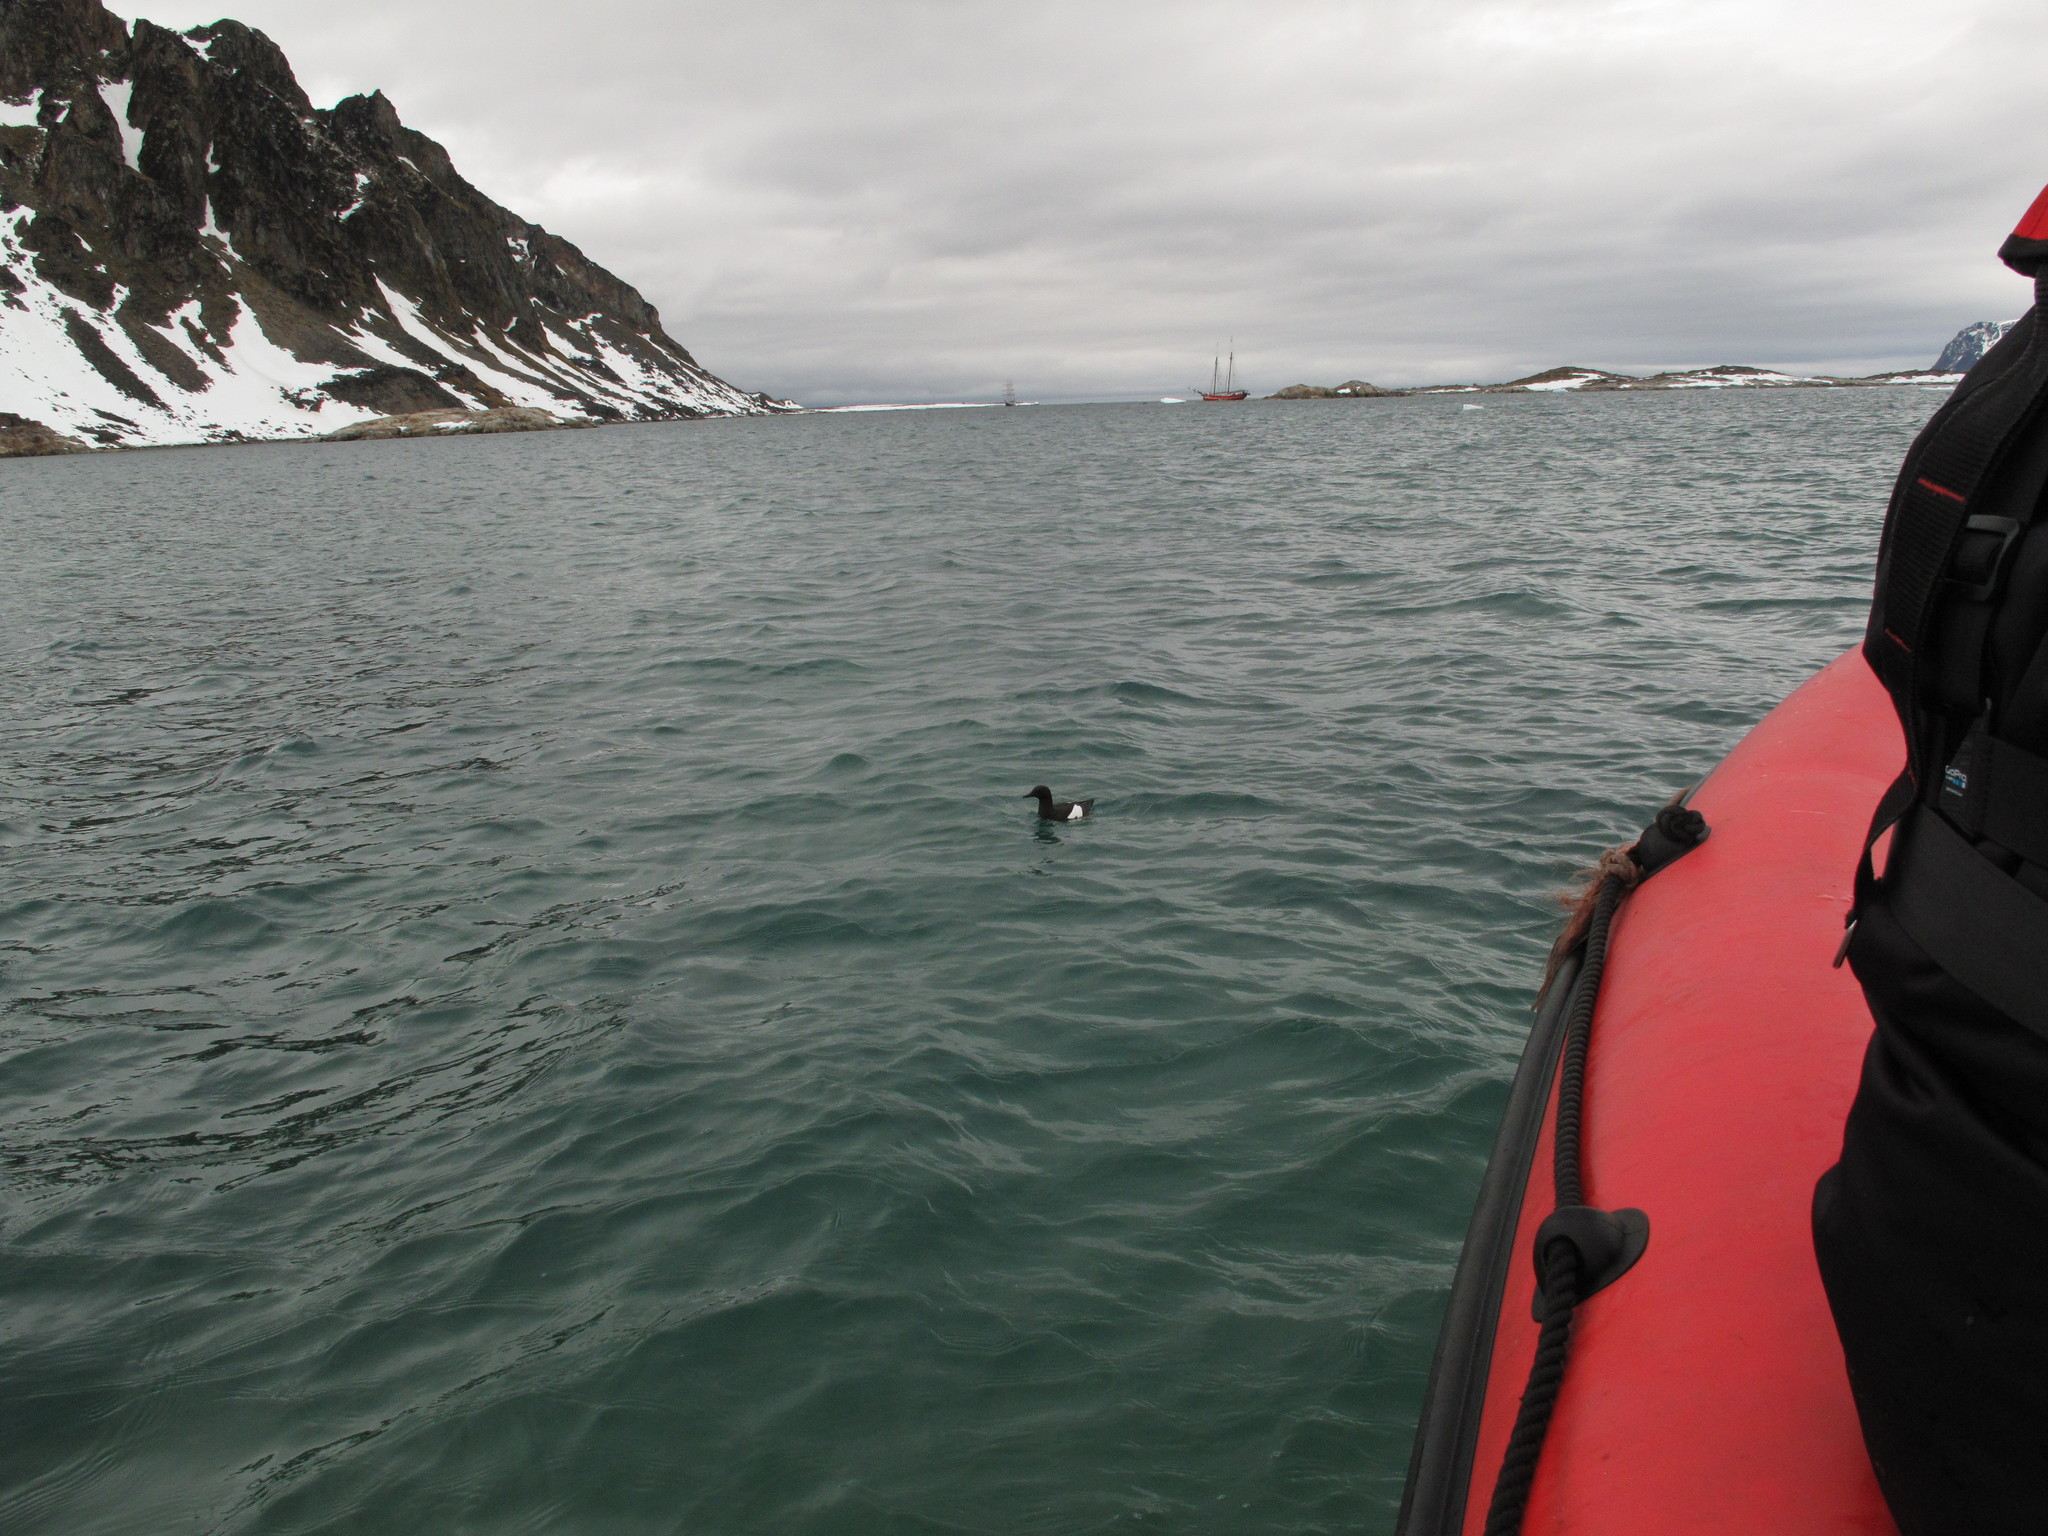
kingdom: Animalia
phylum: Chordata
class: Aves
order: Charadriiformes
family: Alcidae
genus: Cepphus
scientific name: Cepphus grylle
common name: Black guillemot
